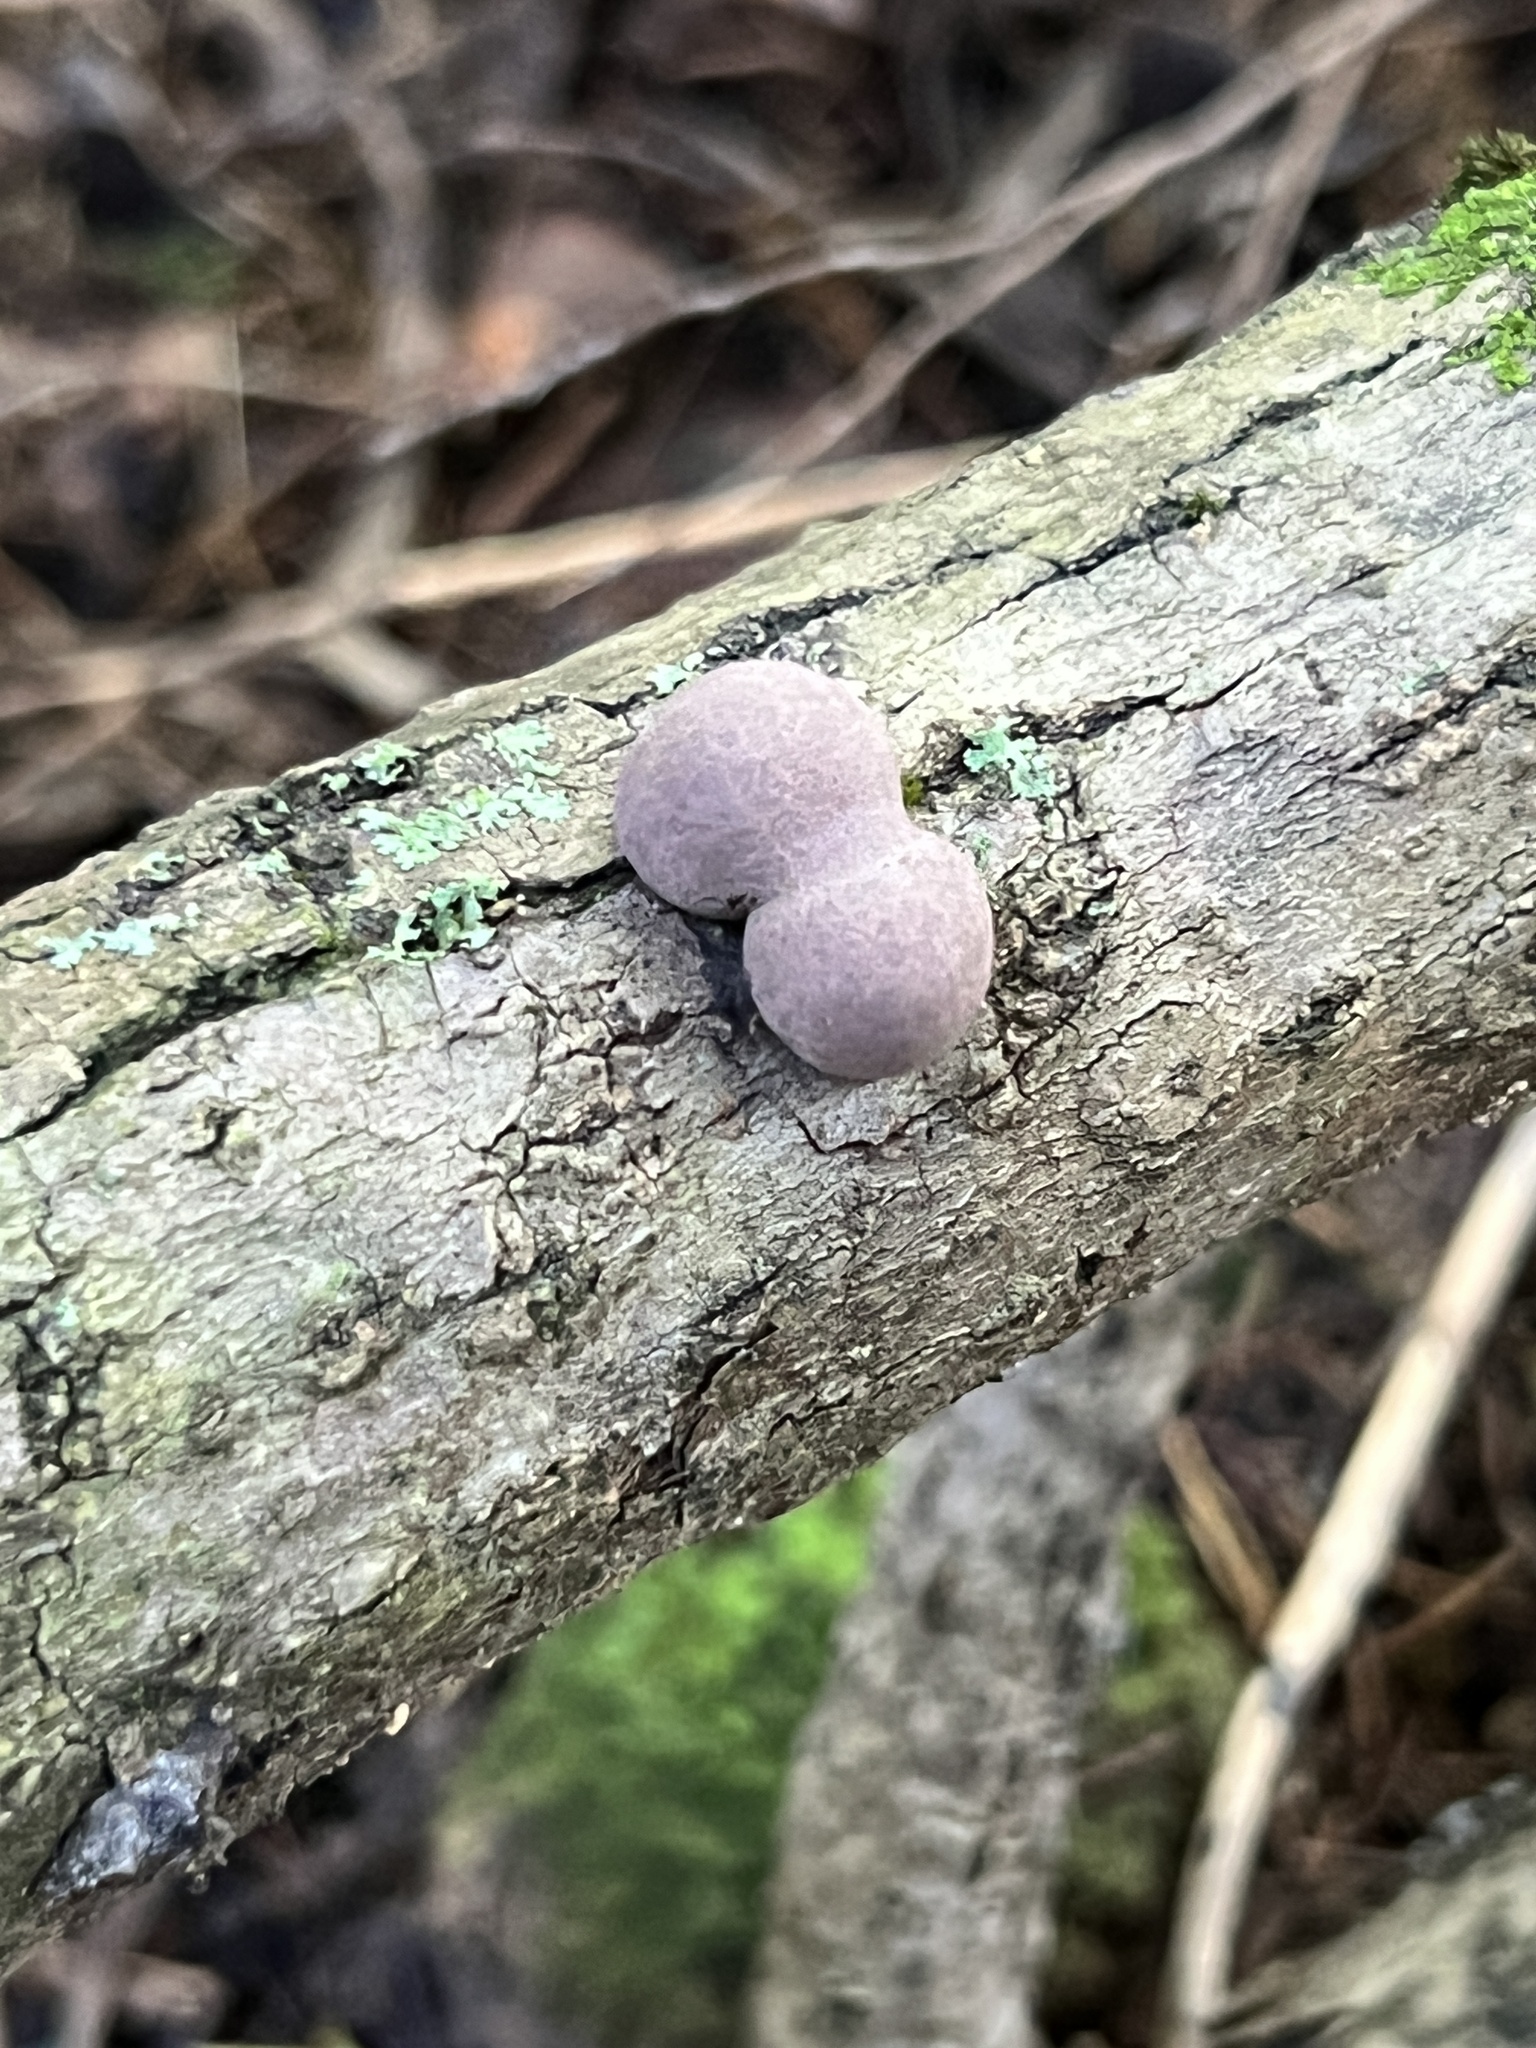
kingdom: Fungi
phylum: Ascomycota
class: Sordariomycetes
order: Xylariales
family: Hypoxylaceae
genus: Daldinia
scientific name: Daldinia childiae
